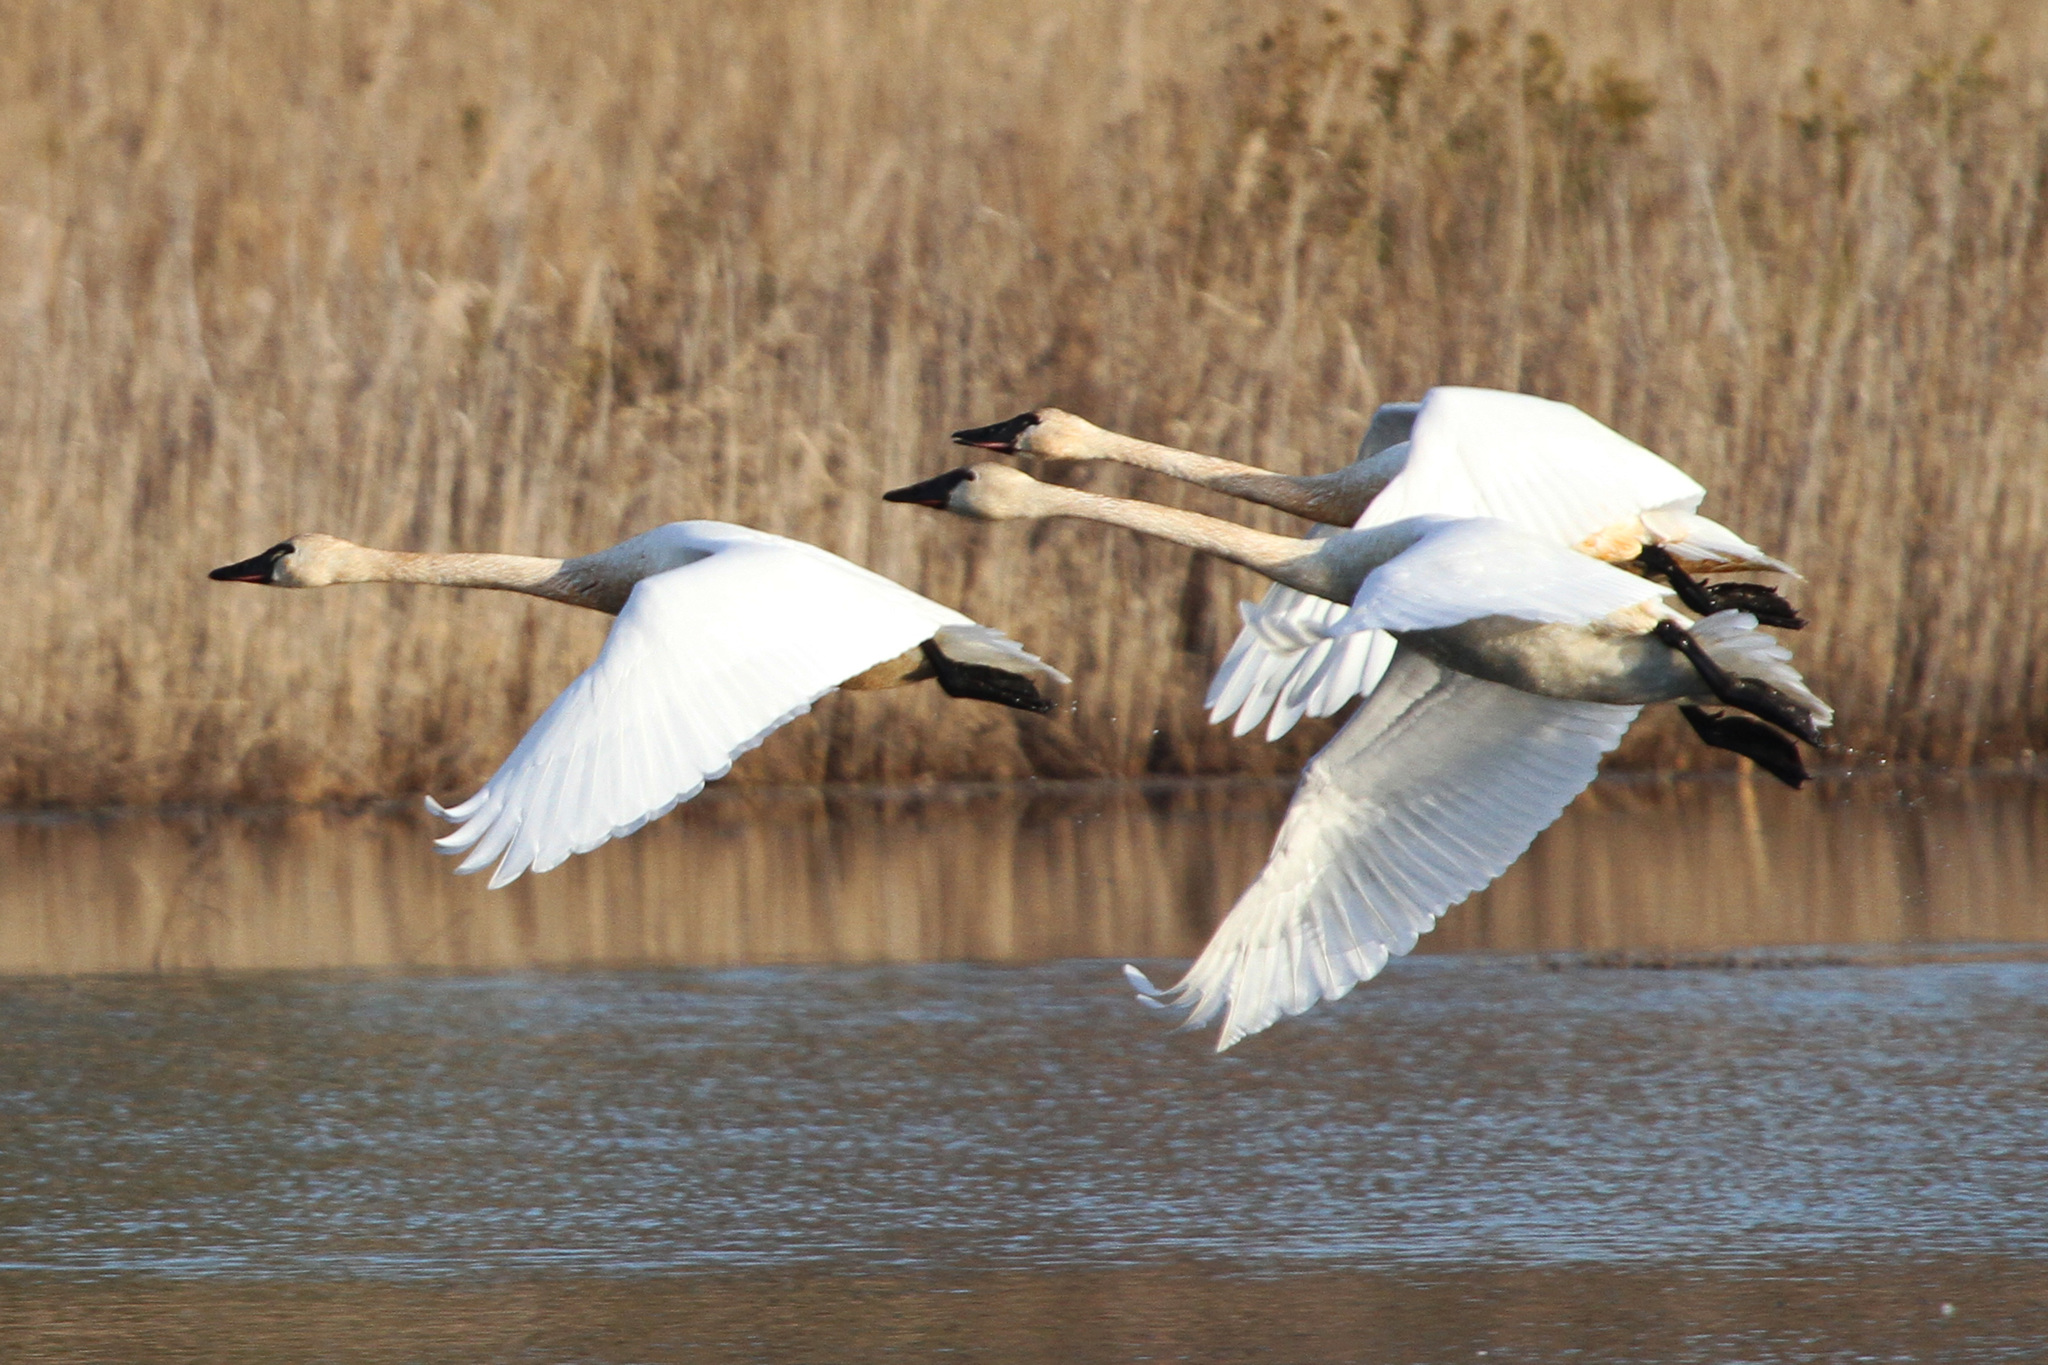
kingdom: Animalia
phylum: Chordata
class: Aves
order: Anseriformes
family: Anatidae
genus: Cygnus
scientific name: Cygnus columbianus
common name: Tundra swan
